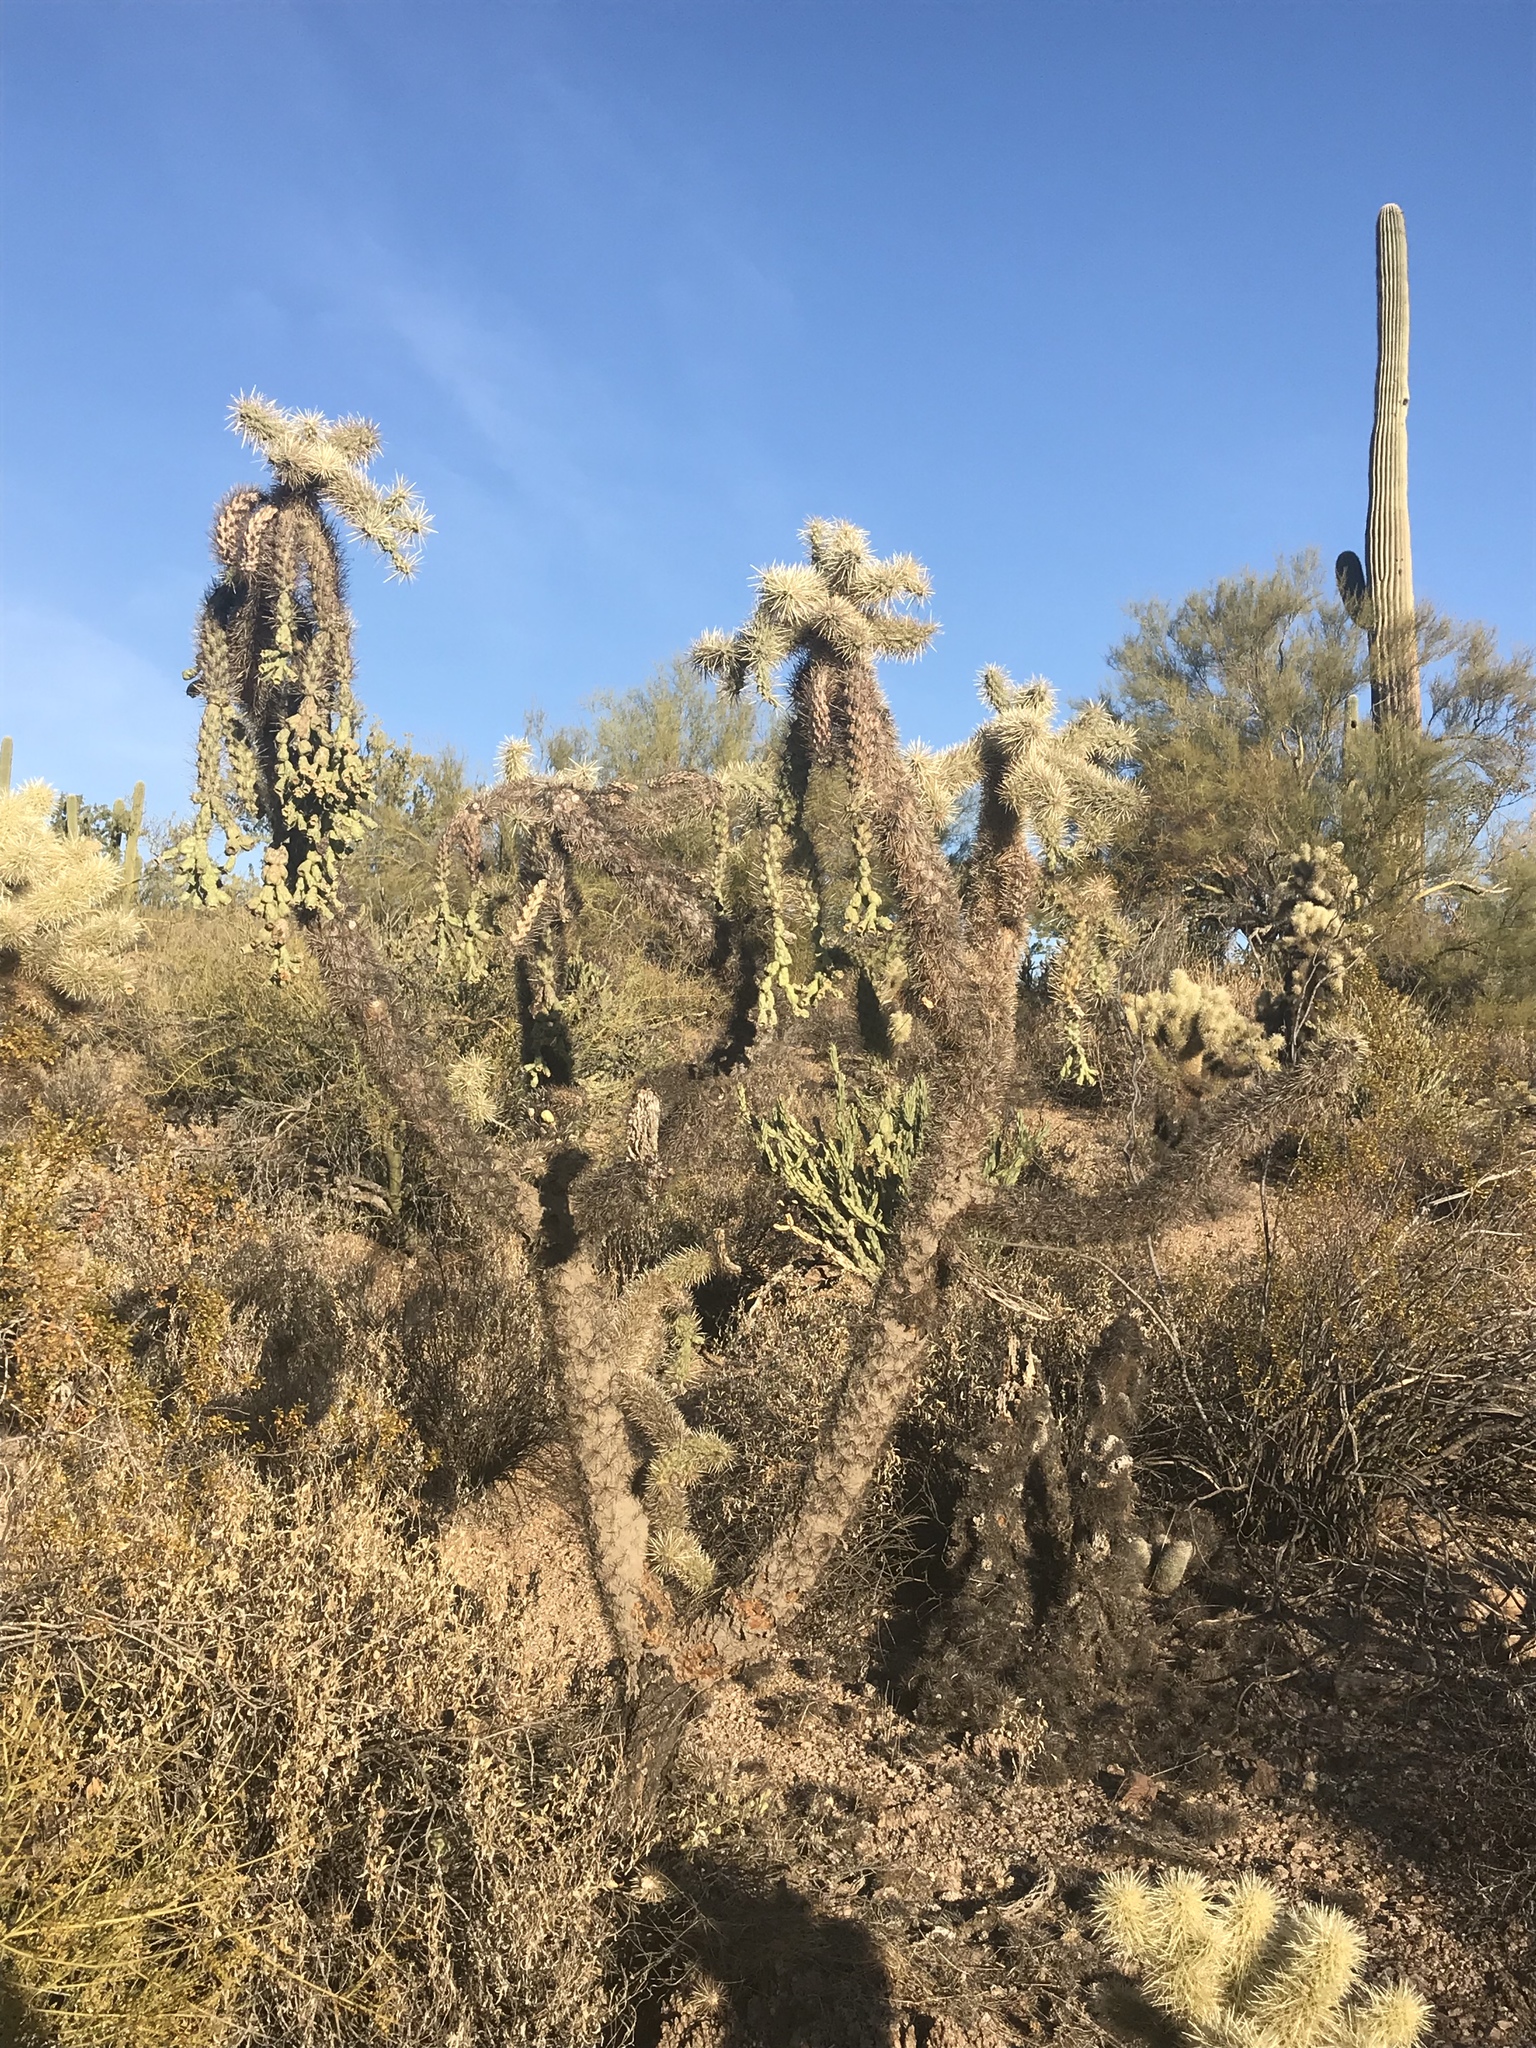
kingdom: Plantae
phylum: Tracheophyta
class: Magnoliopsida
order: Caryophyllales
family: Cactaceae
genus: Cylindropuntia
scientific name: Cylindropuntia fulgida
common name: Jumping cholla
